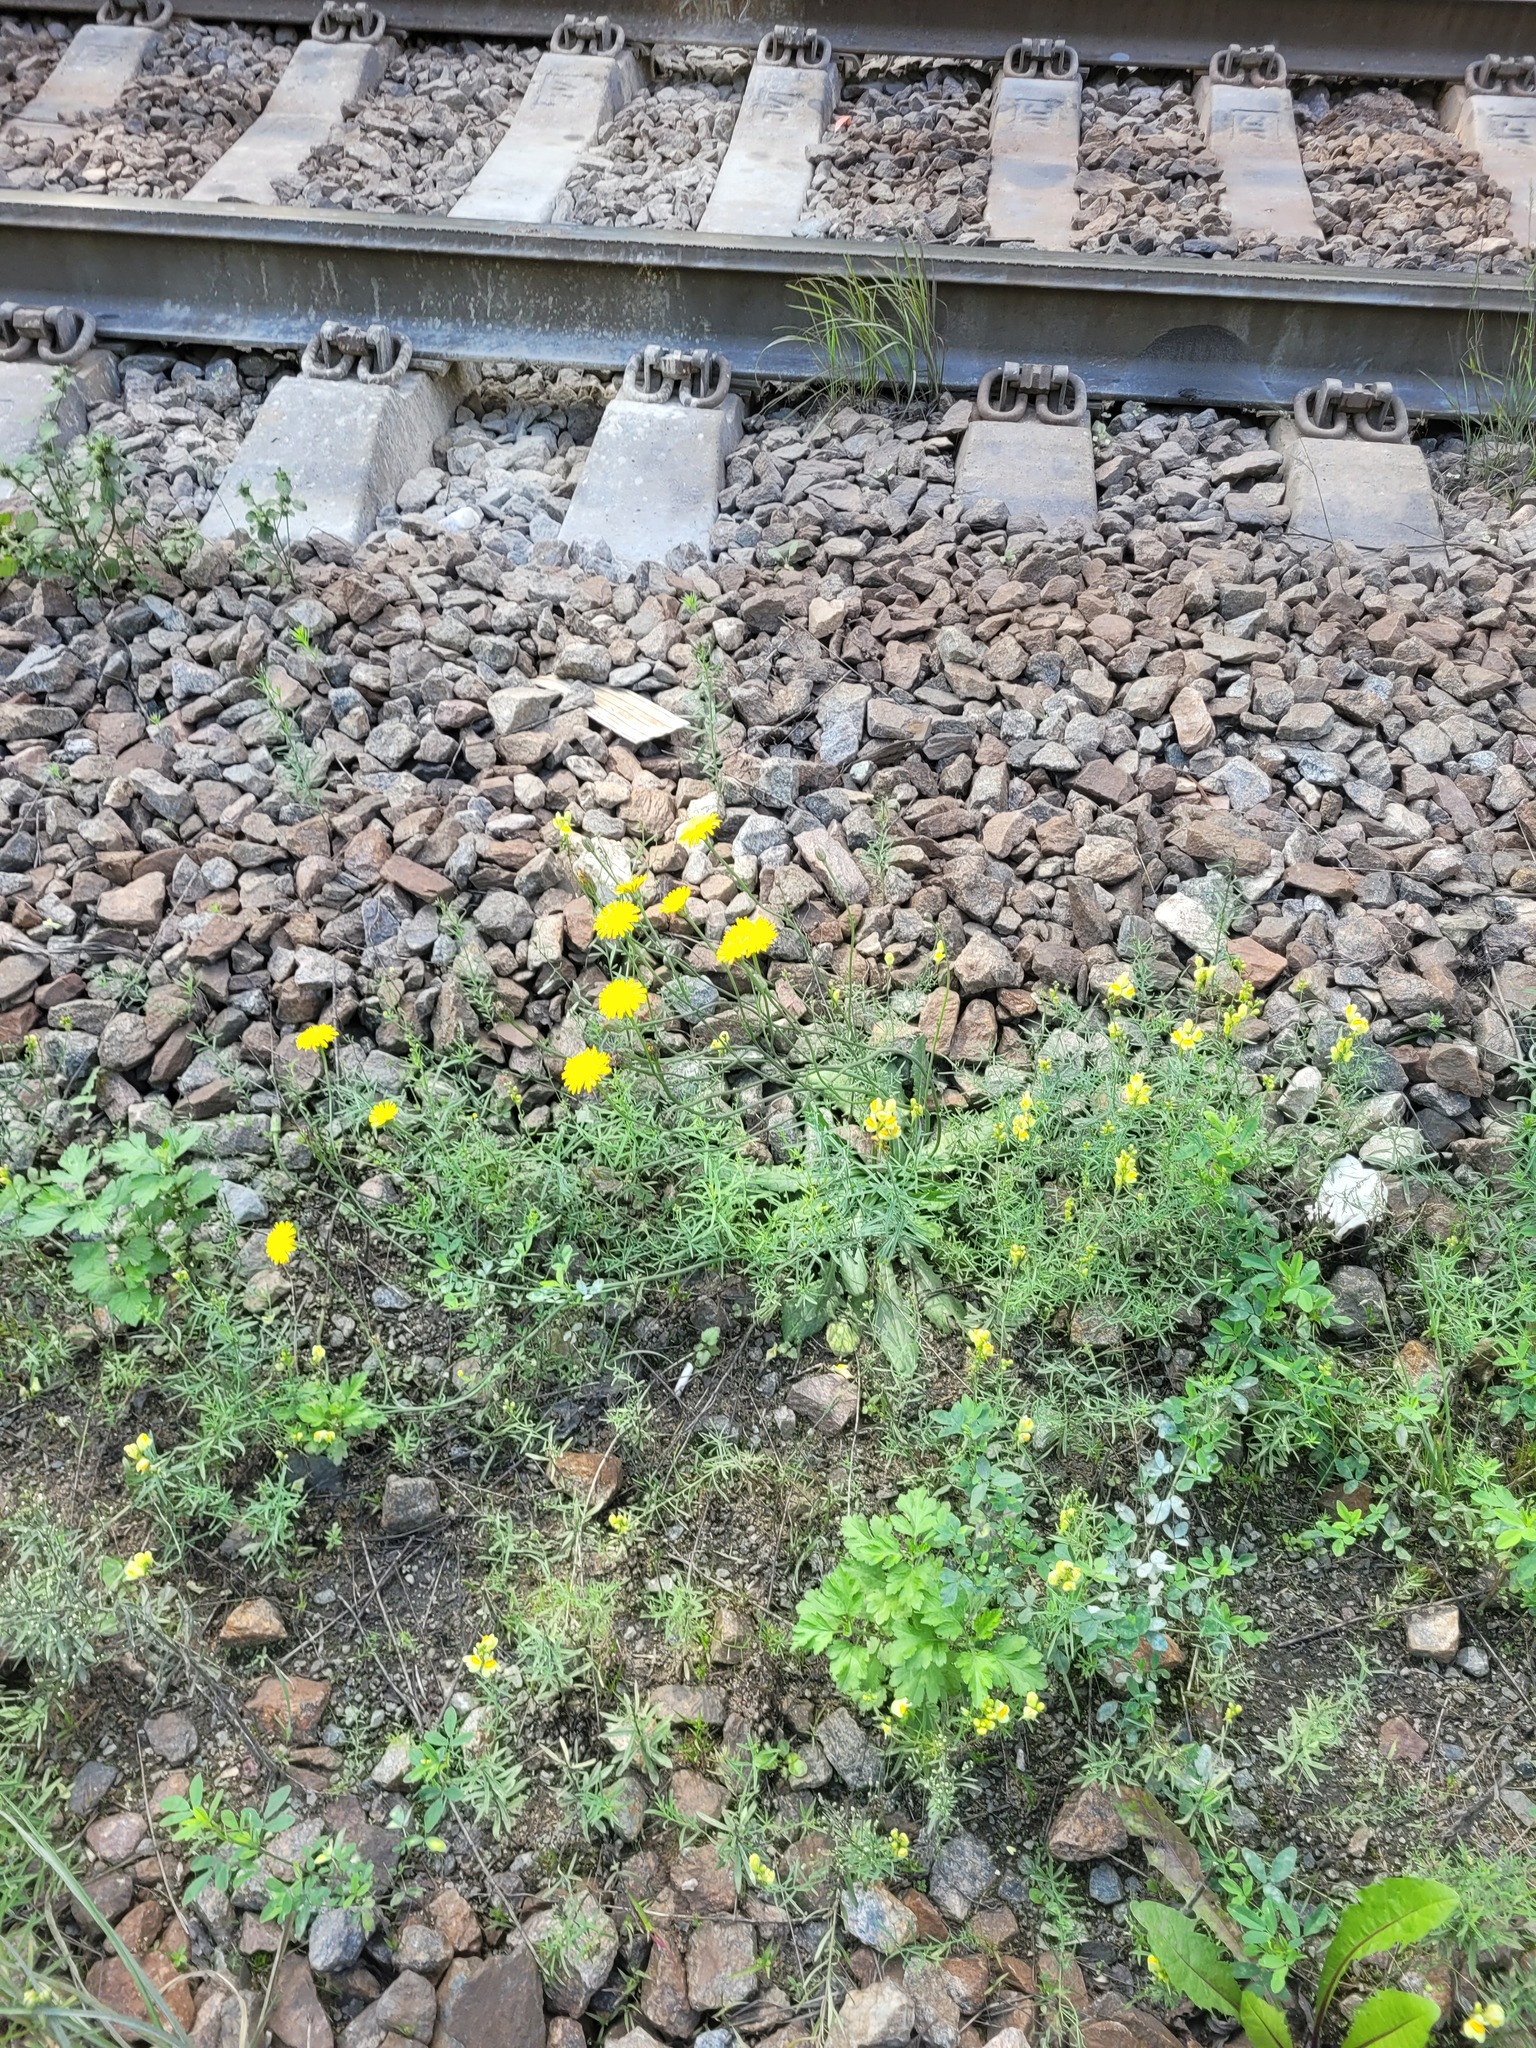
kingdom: Plantae
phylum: Tracheophyta
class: Magnoliopsida
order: Asterales
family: Asteraceae
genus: Hypochaeris
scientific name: Hypochaeris radicata
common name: Flatweed
